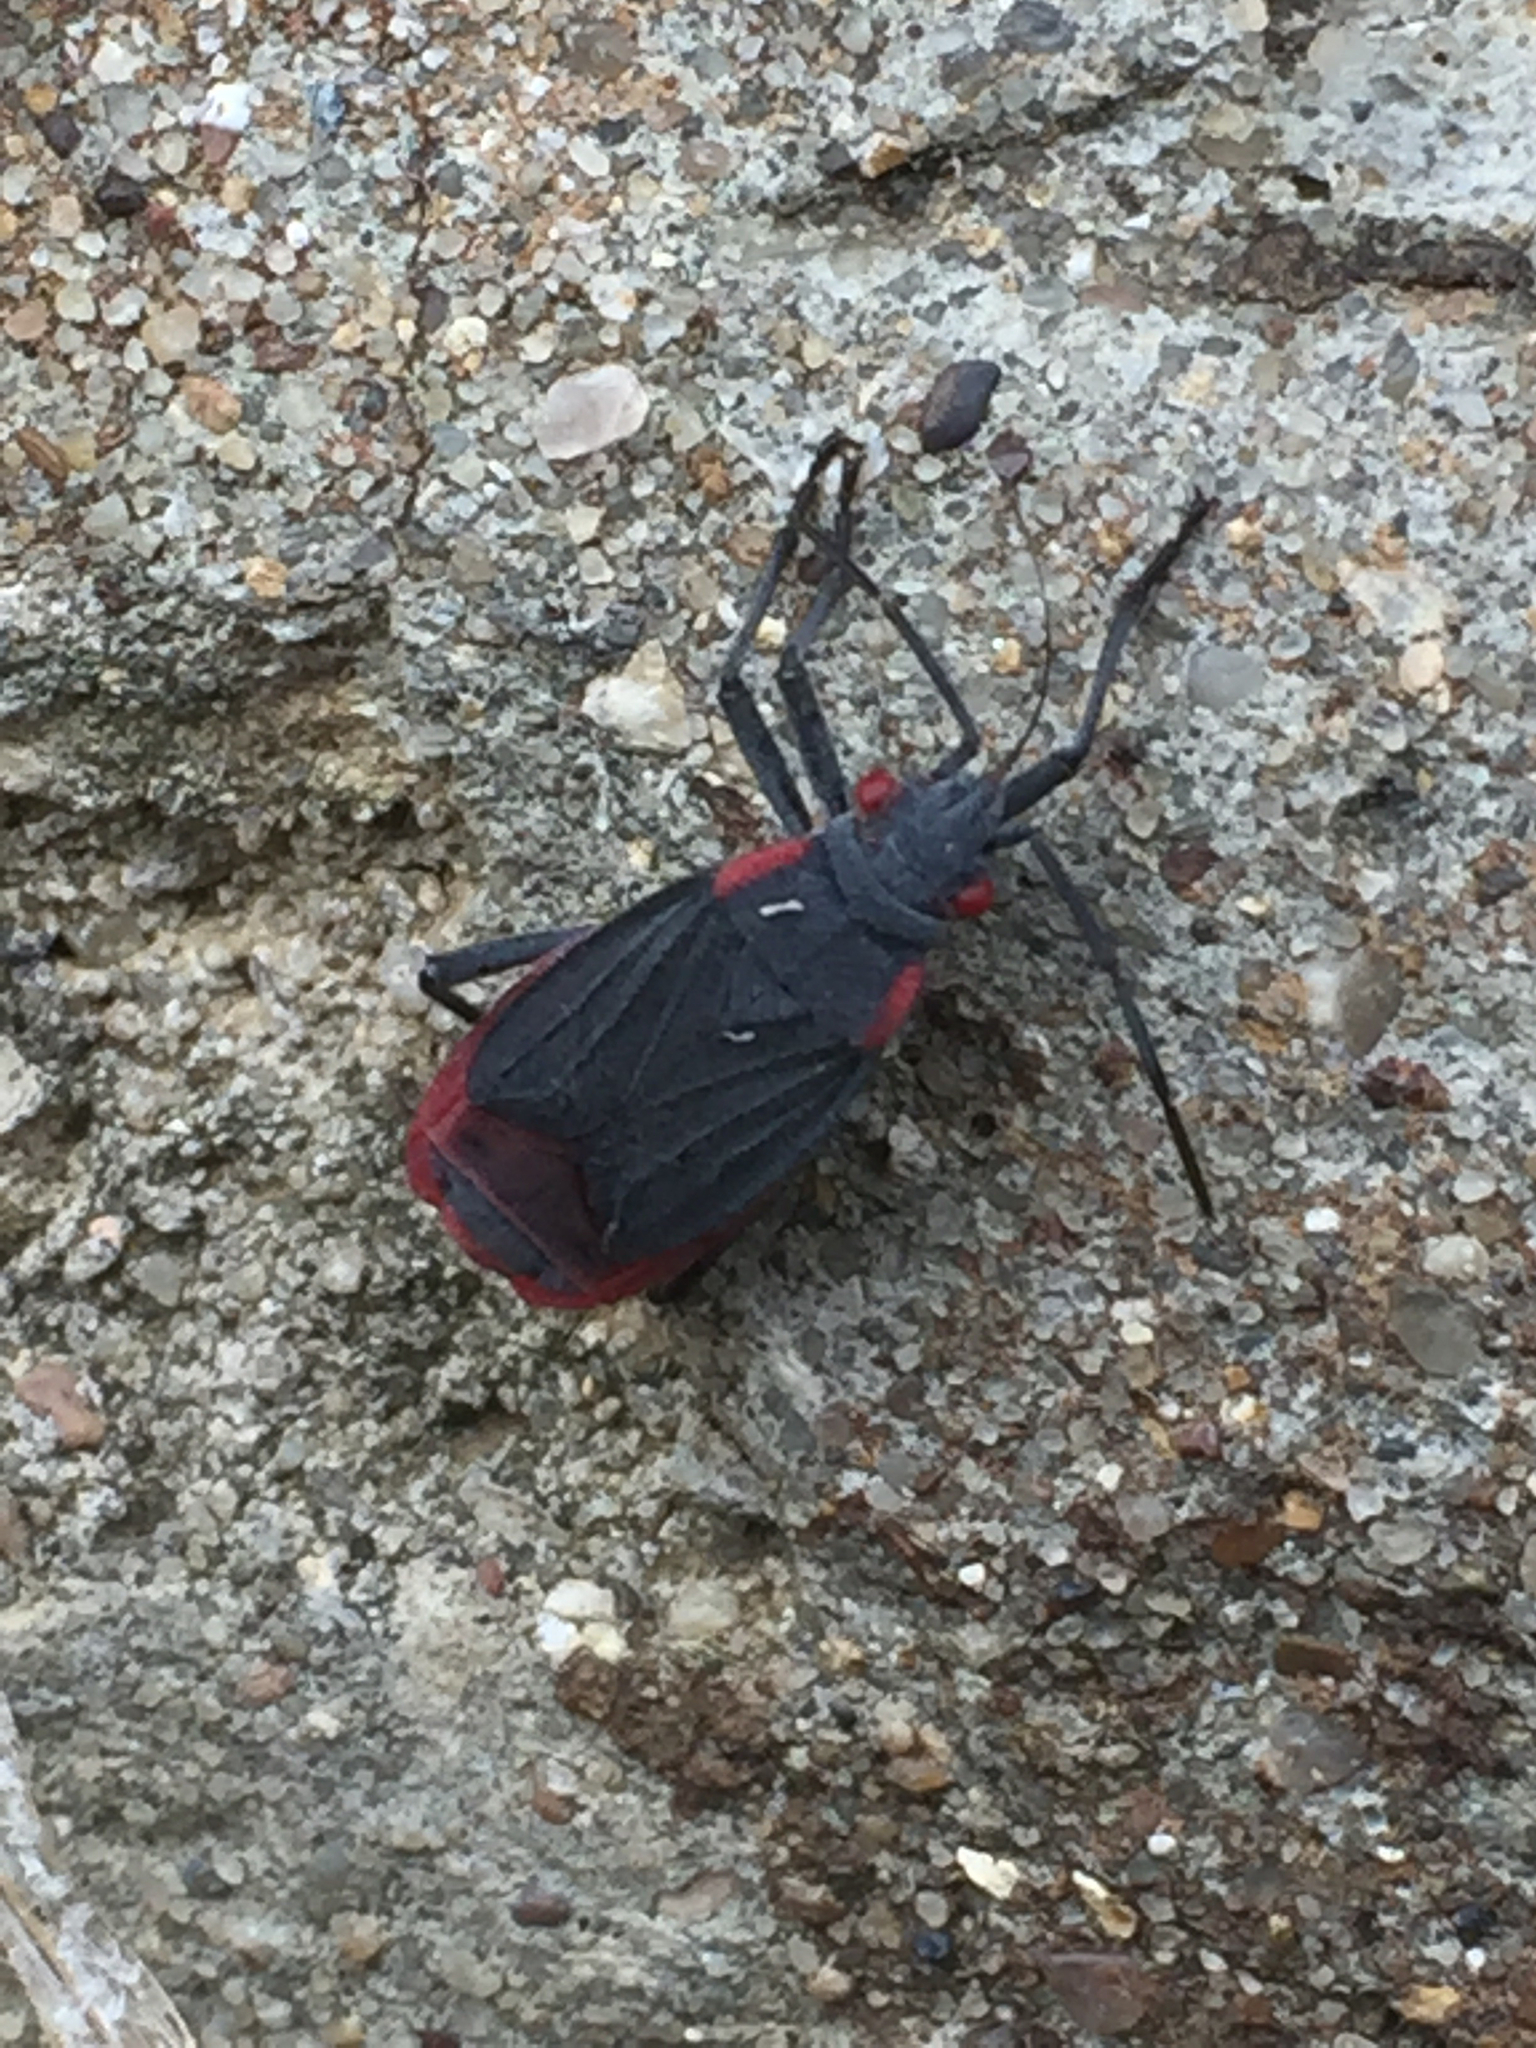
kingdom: Animalia
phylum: Arthropoda
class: Insecta
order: Hemiptera
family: Rhopalidae
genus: Jadera
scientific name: Jadera haematoloma
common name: Red-shouldered bug
